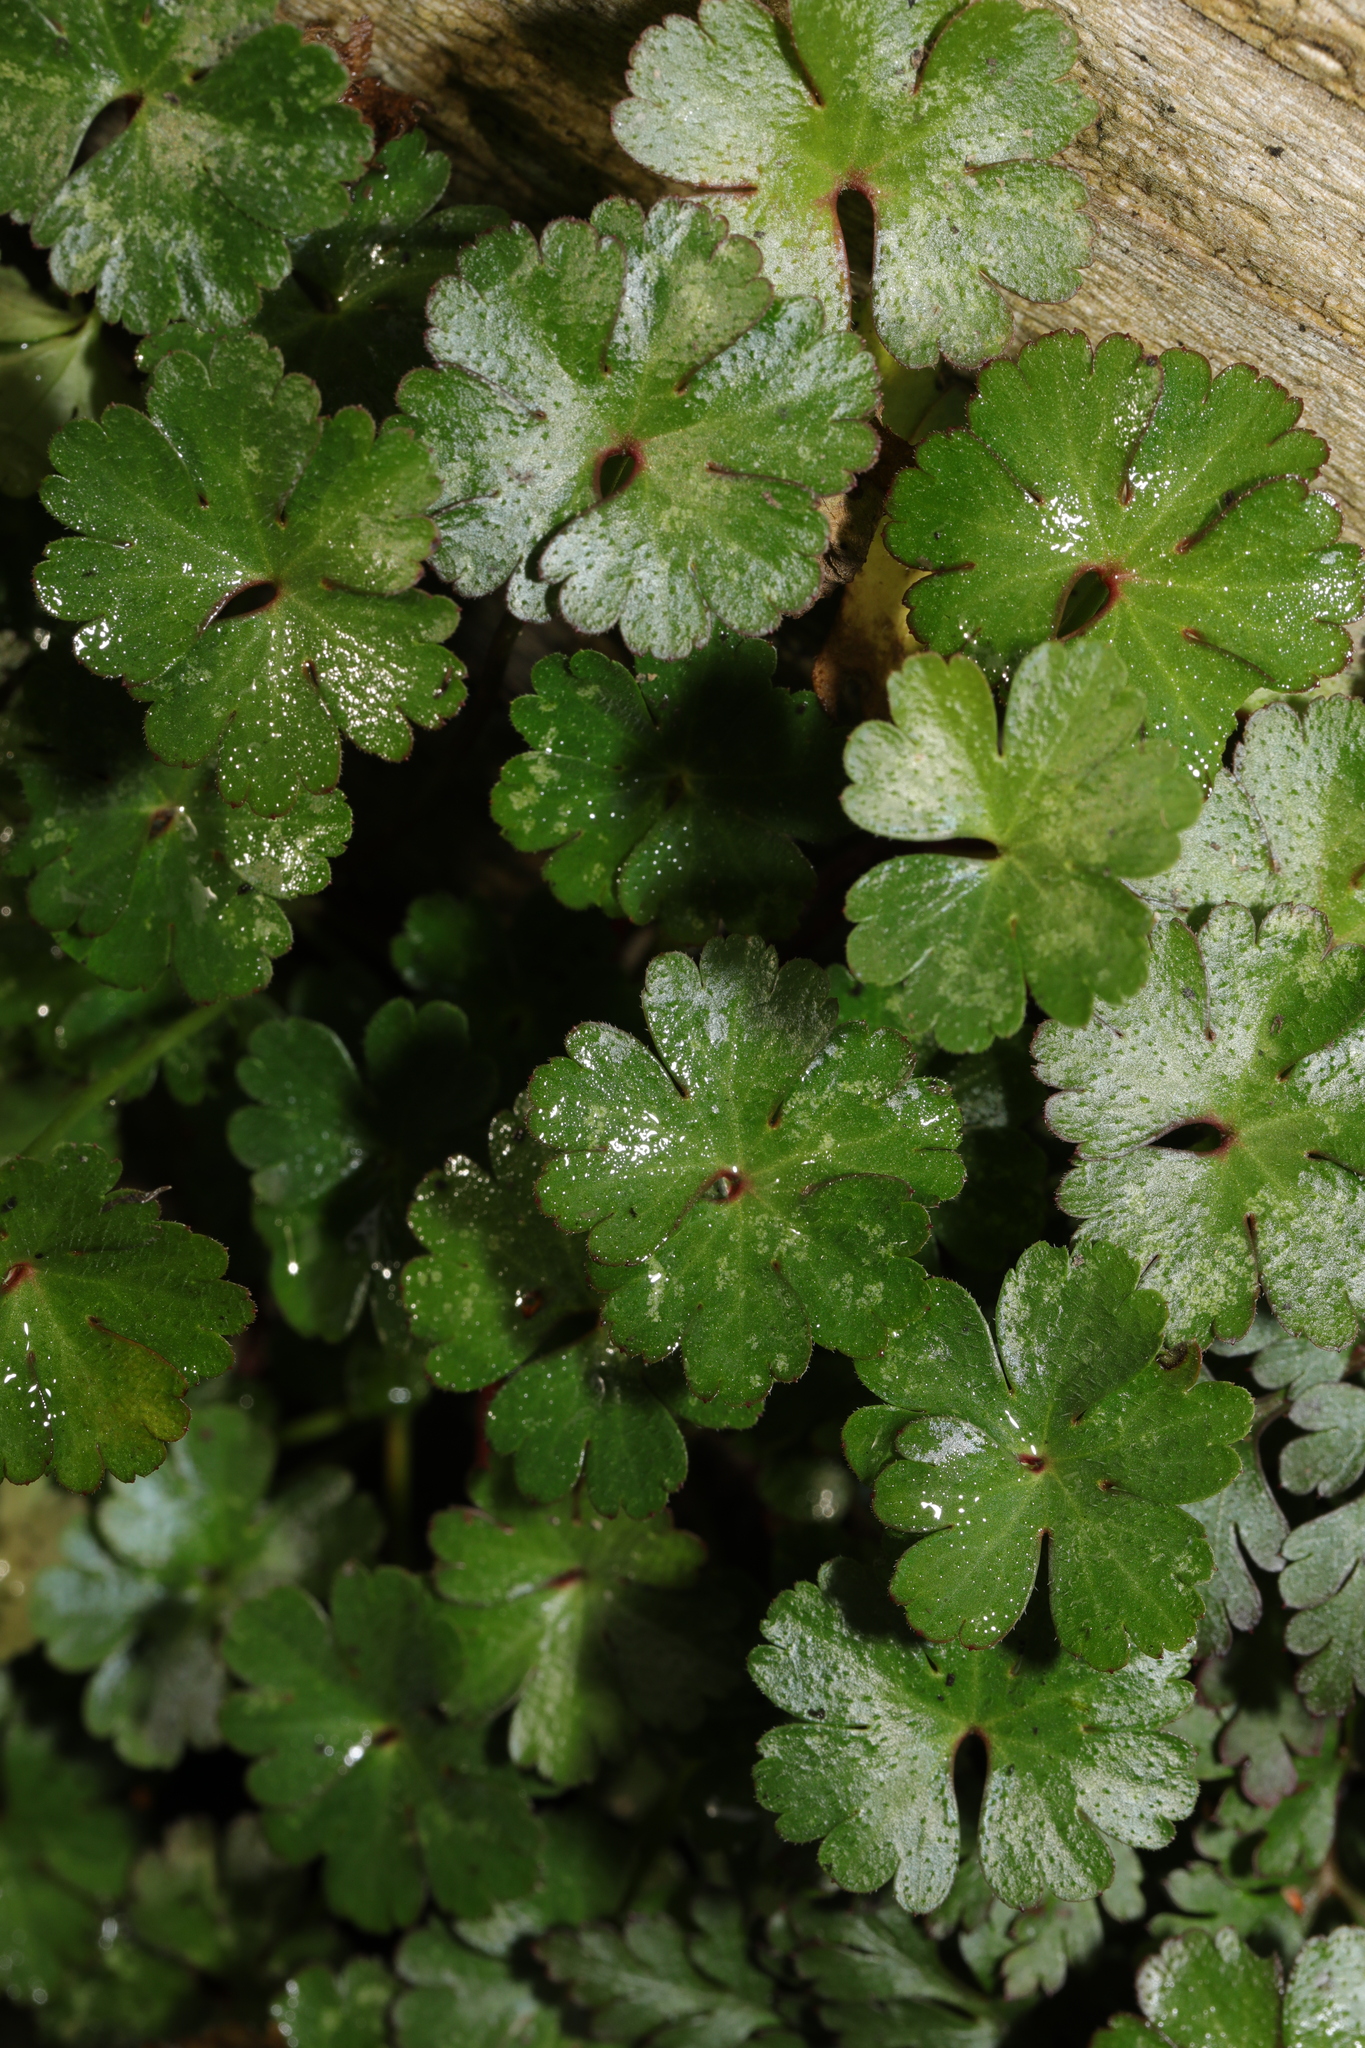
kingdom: Plantae
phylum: Tracheophyta
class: Magnoliopsida
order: Geraniales
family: Geraniaceae
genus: Geranium
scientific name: Geranium lucidum
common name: Shining crane's-bill
